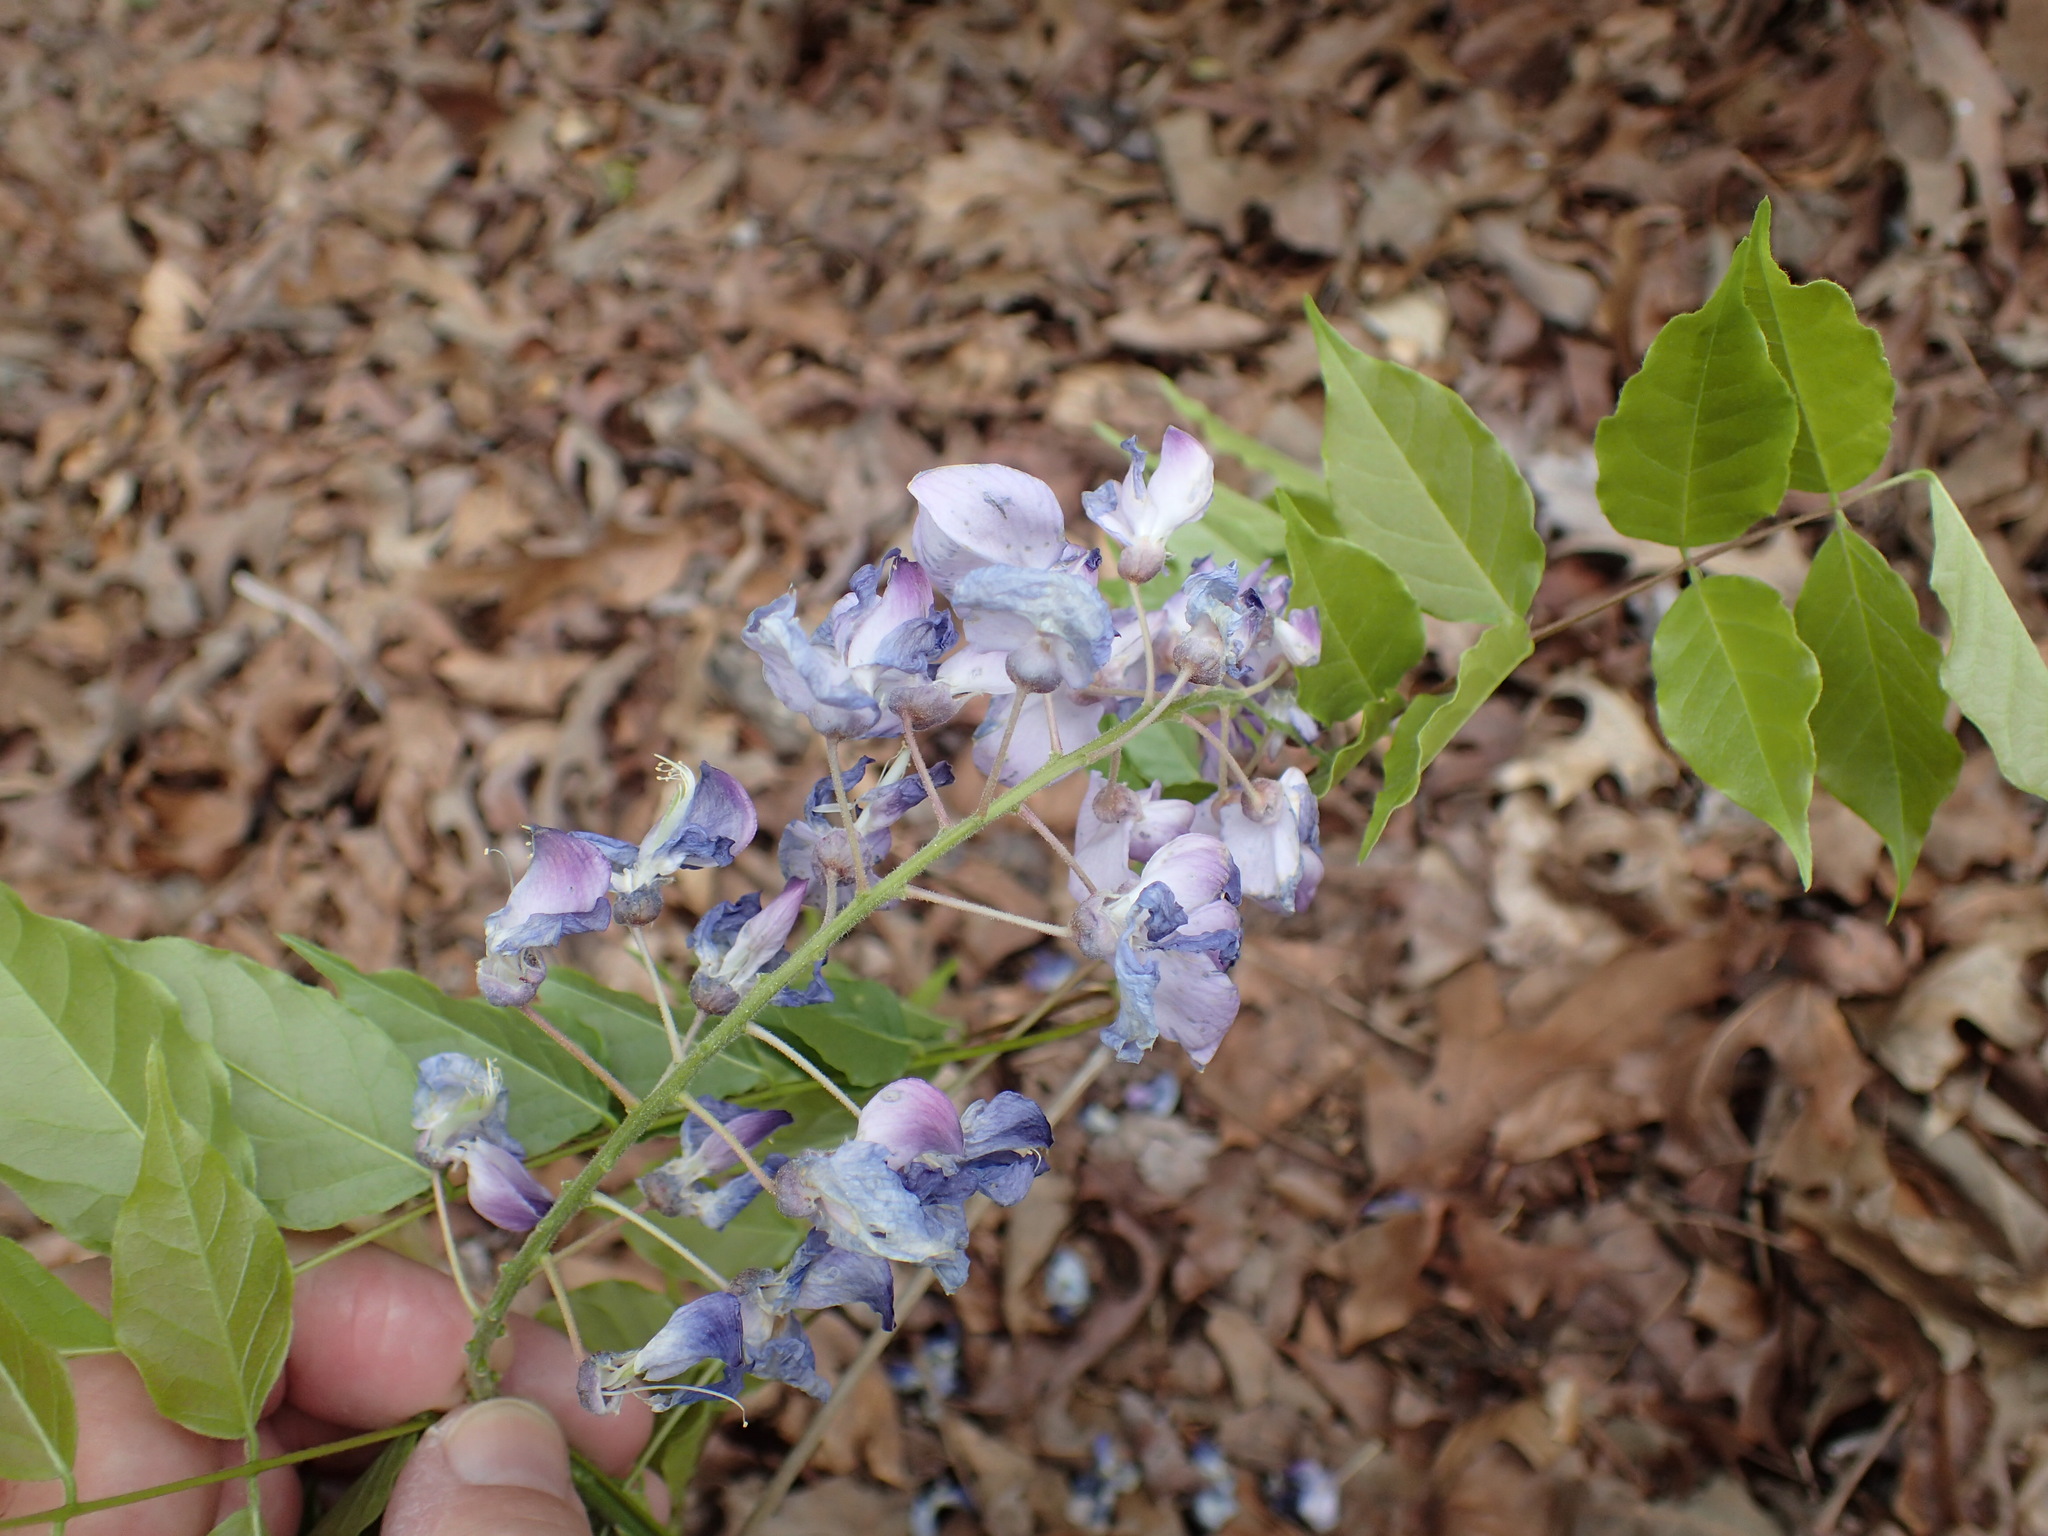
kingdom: Plantae
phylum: Tracheophyta
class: Magnoliopsida
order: Fabales
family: Fabaceae
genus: Wisteria
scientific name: Wisteria sinensis
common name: Chinese wisteria
